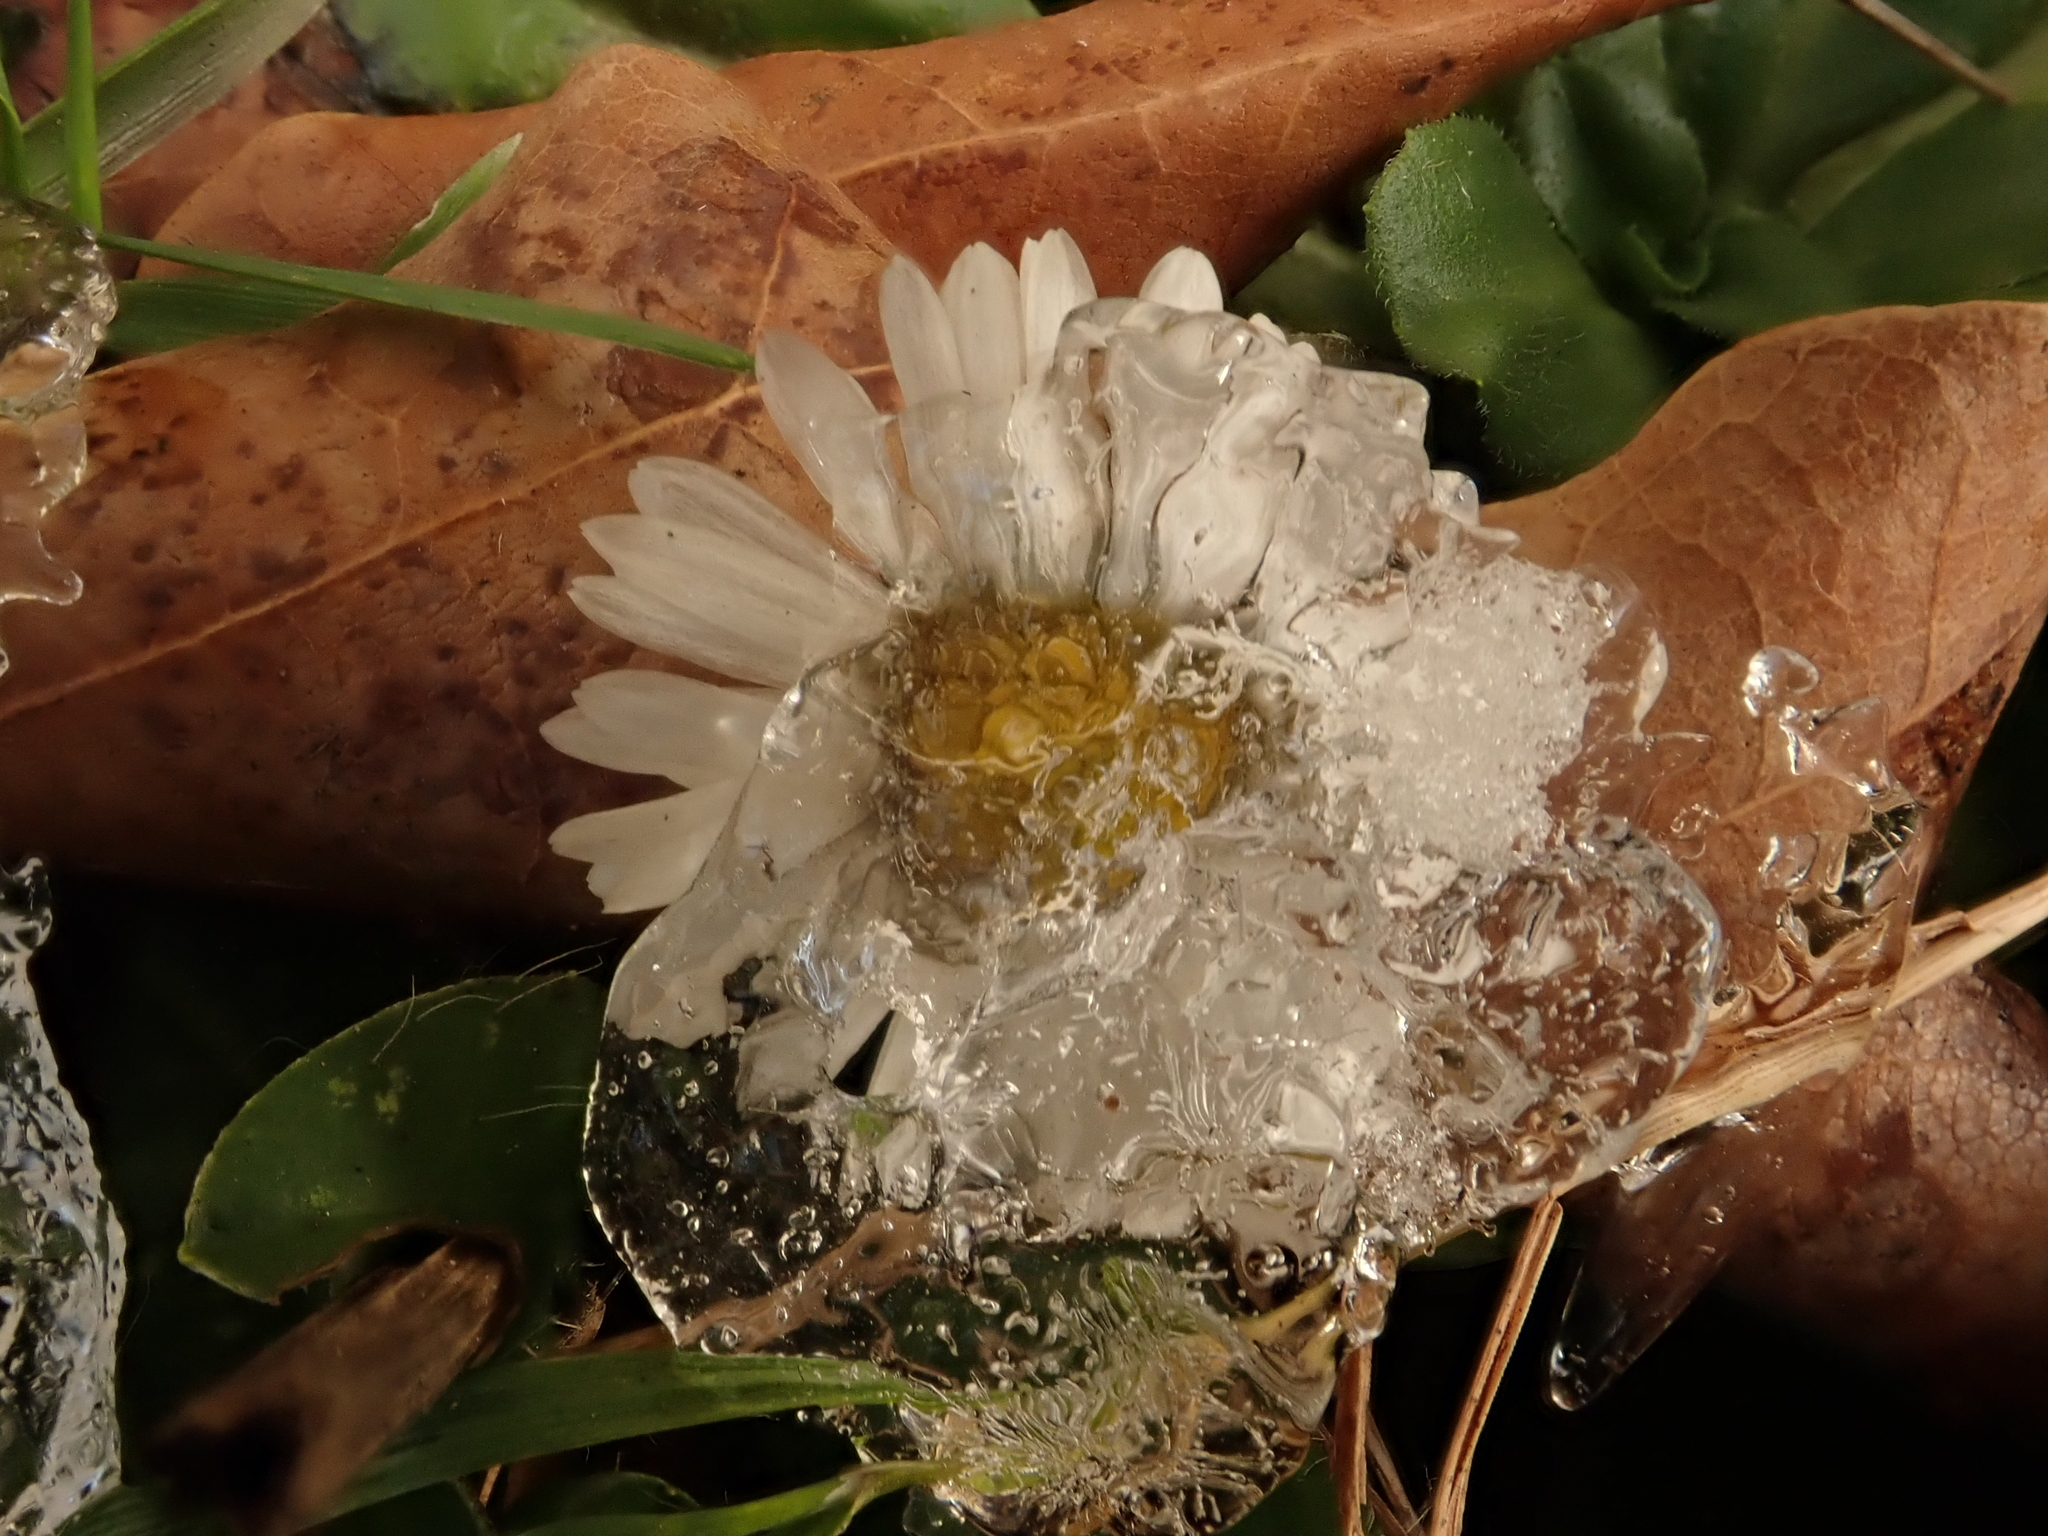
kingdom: Plantae
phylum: Tracheophyta
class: Magnoliopsida
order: Asterales
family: Asteraceae
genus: Bellis
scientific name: Bellis perennis
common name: Lawndaisy
